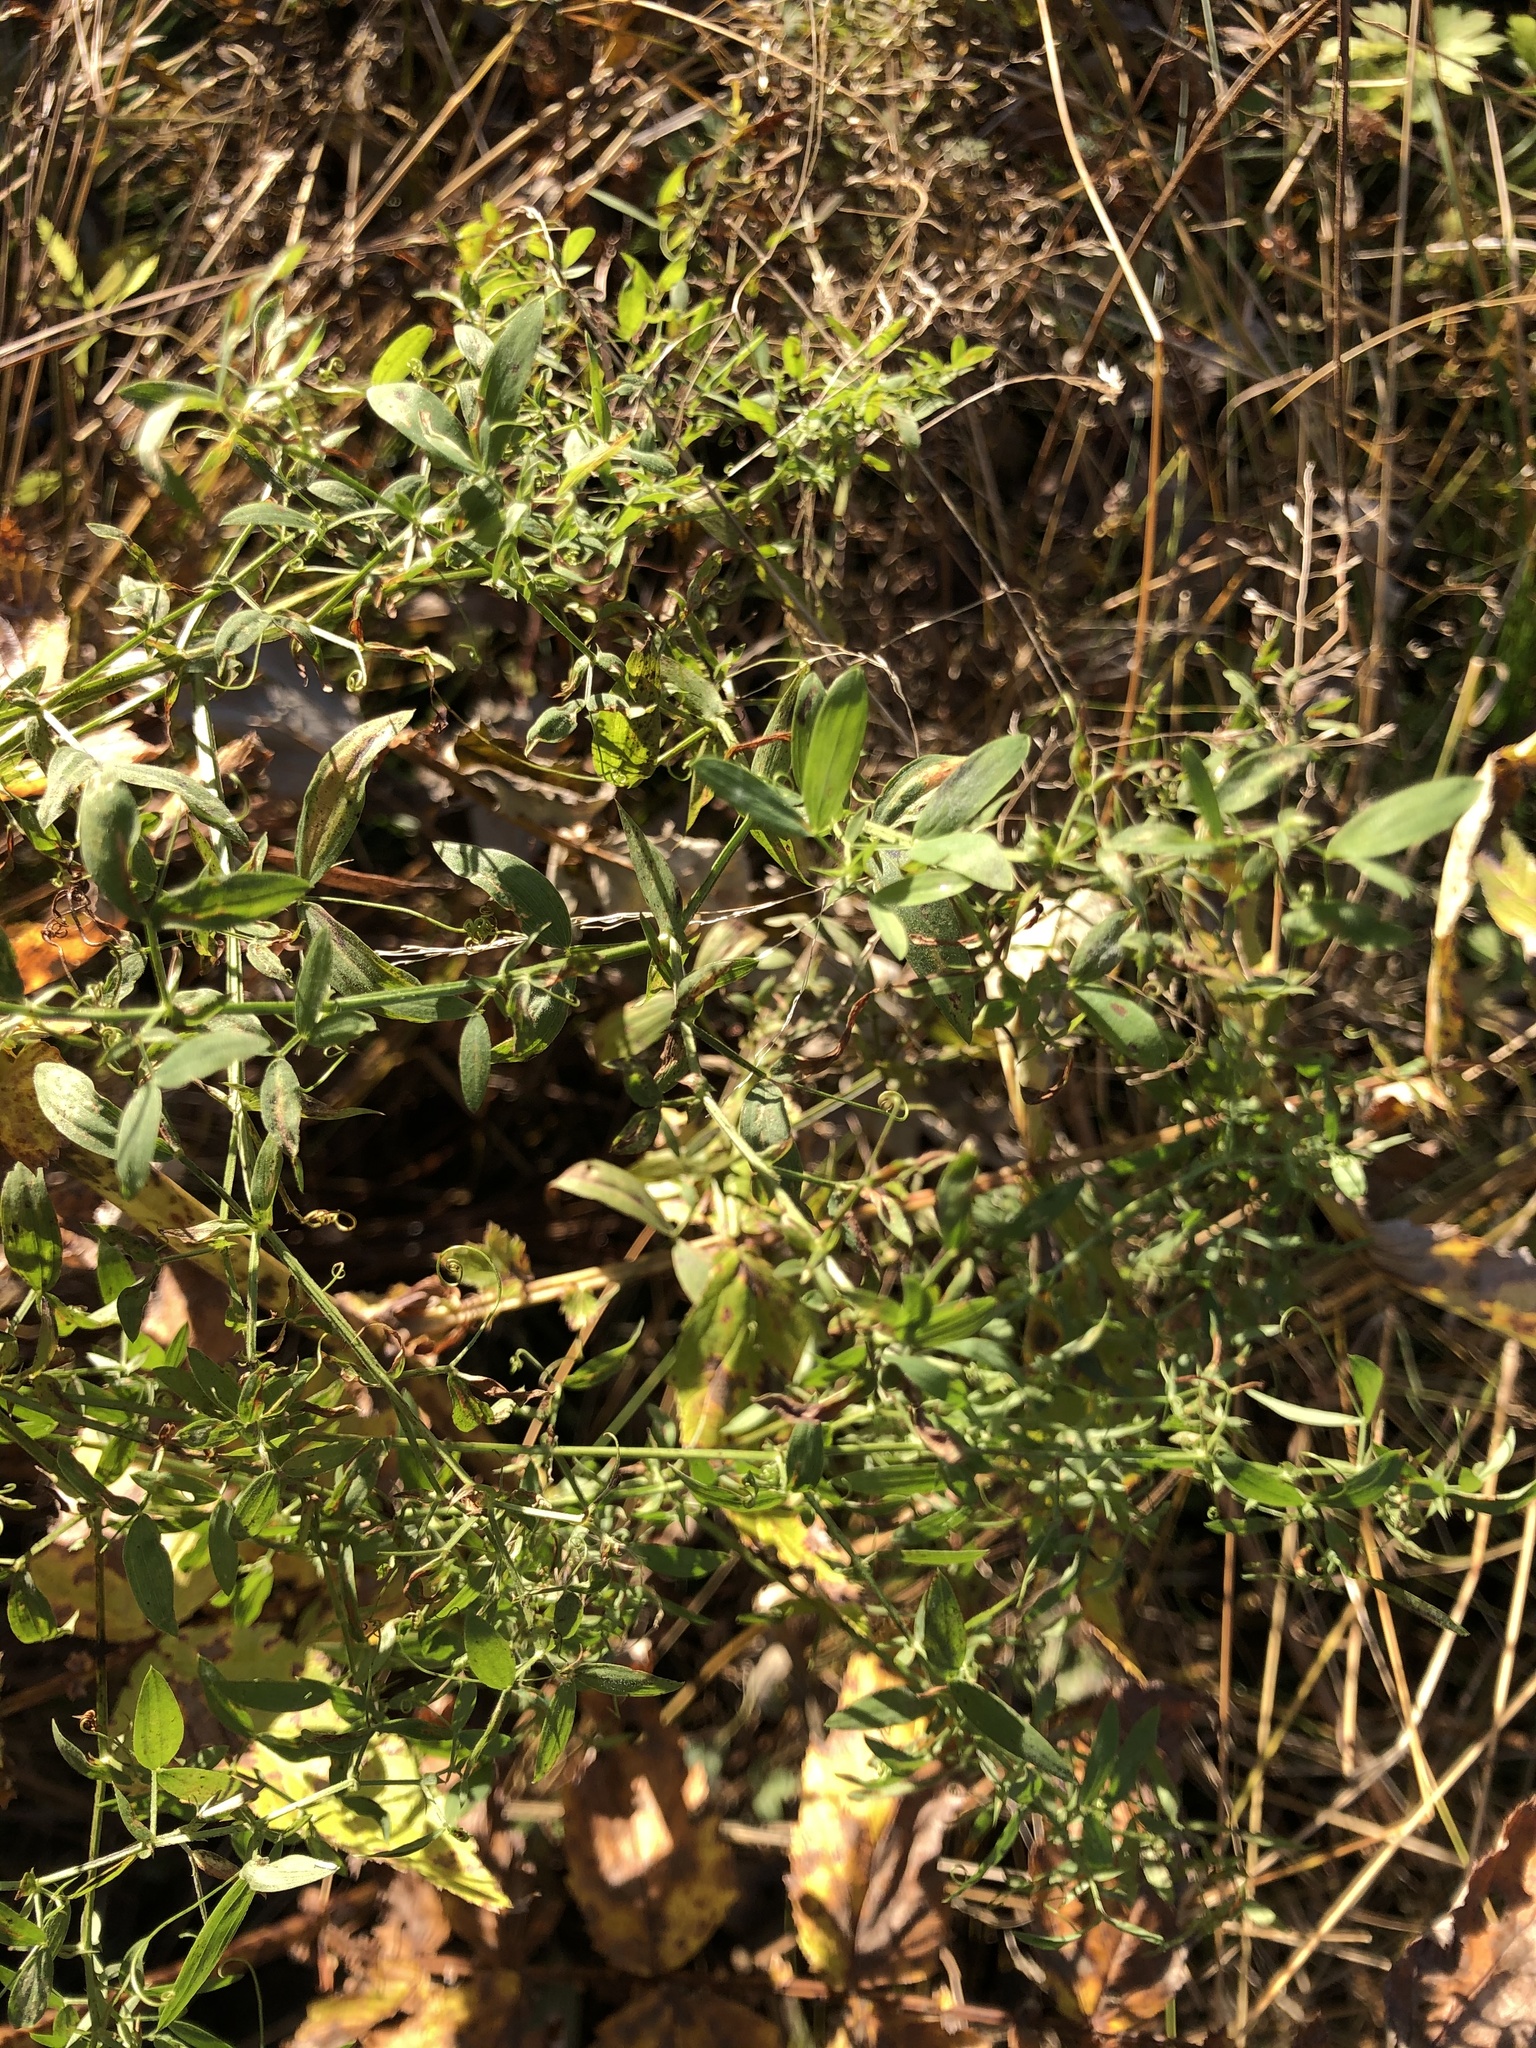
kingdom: Plantae
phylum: Tracheophyta
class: Magnoliopsida
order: Fabales
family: Fabaceae
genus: Lathyrus
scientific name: Lathyrus pratensis
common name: Meadow vetchling
